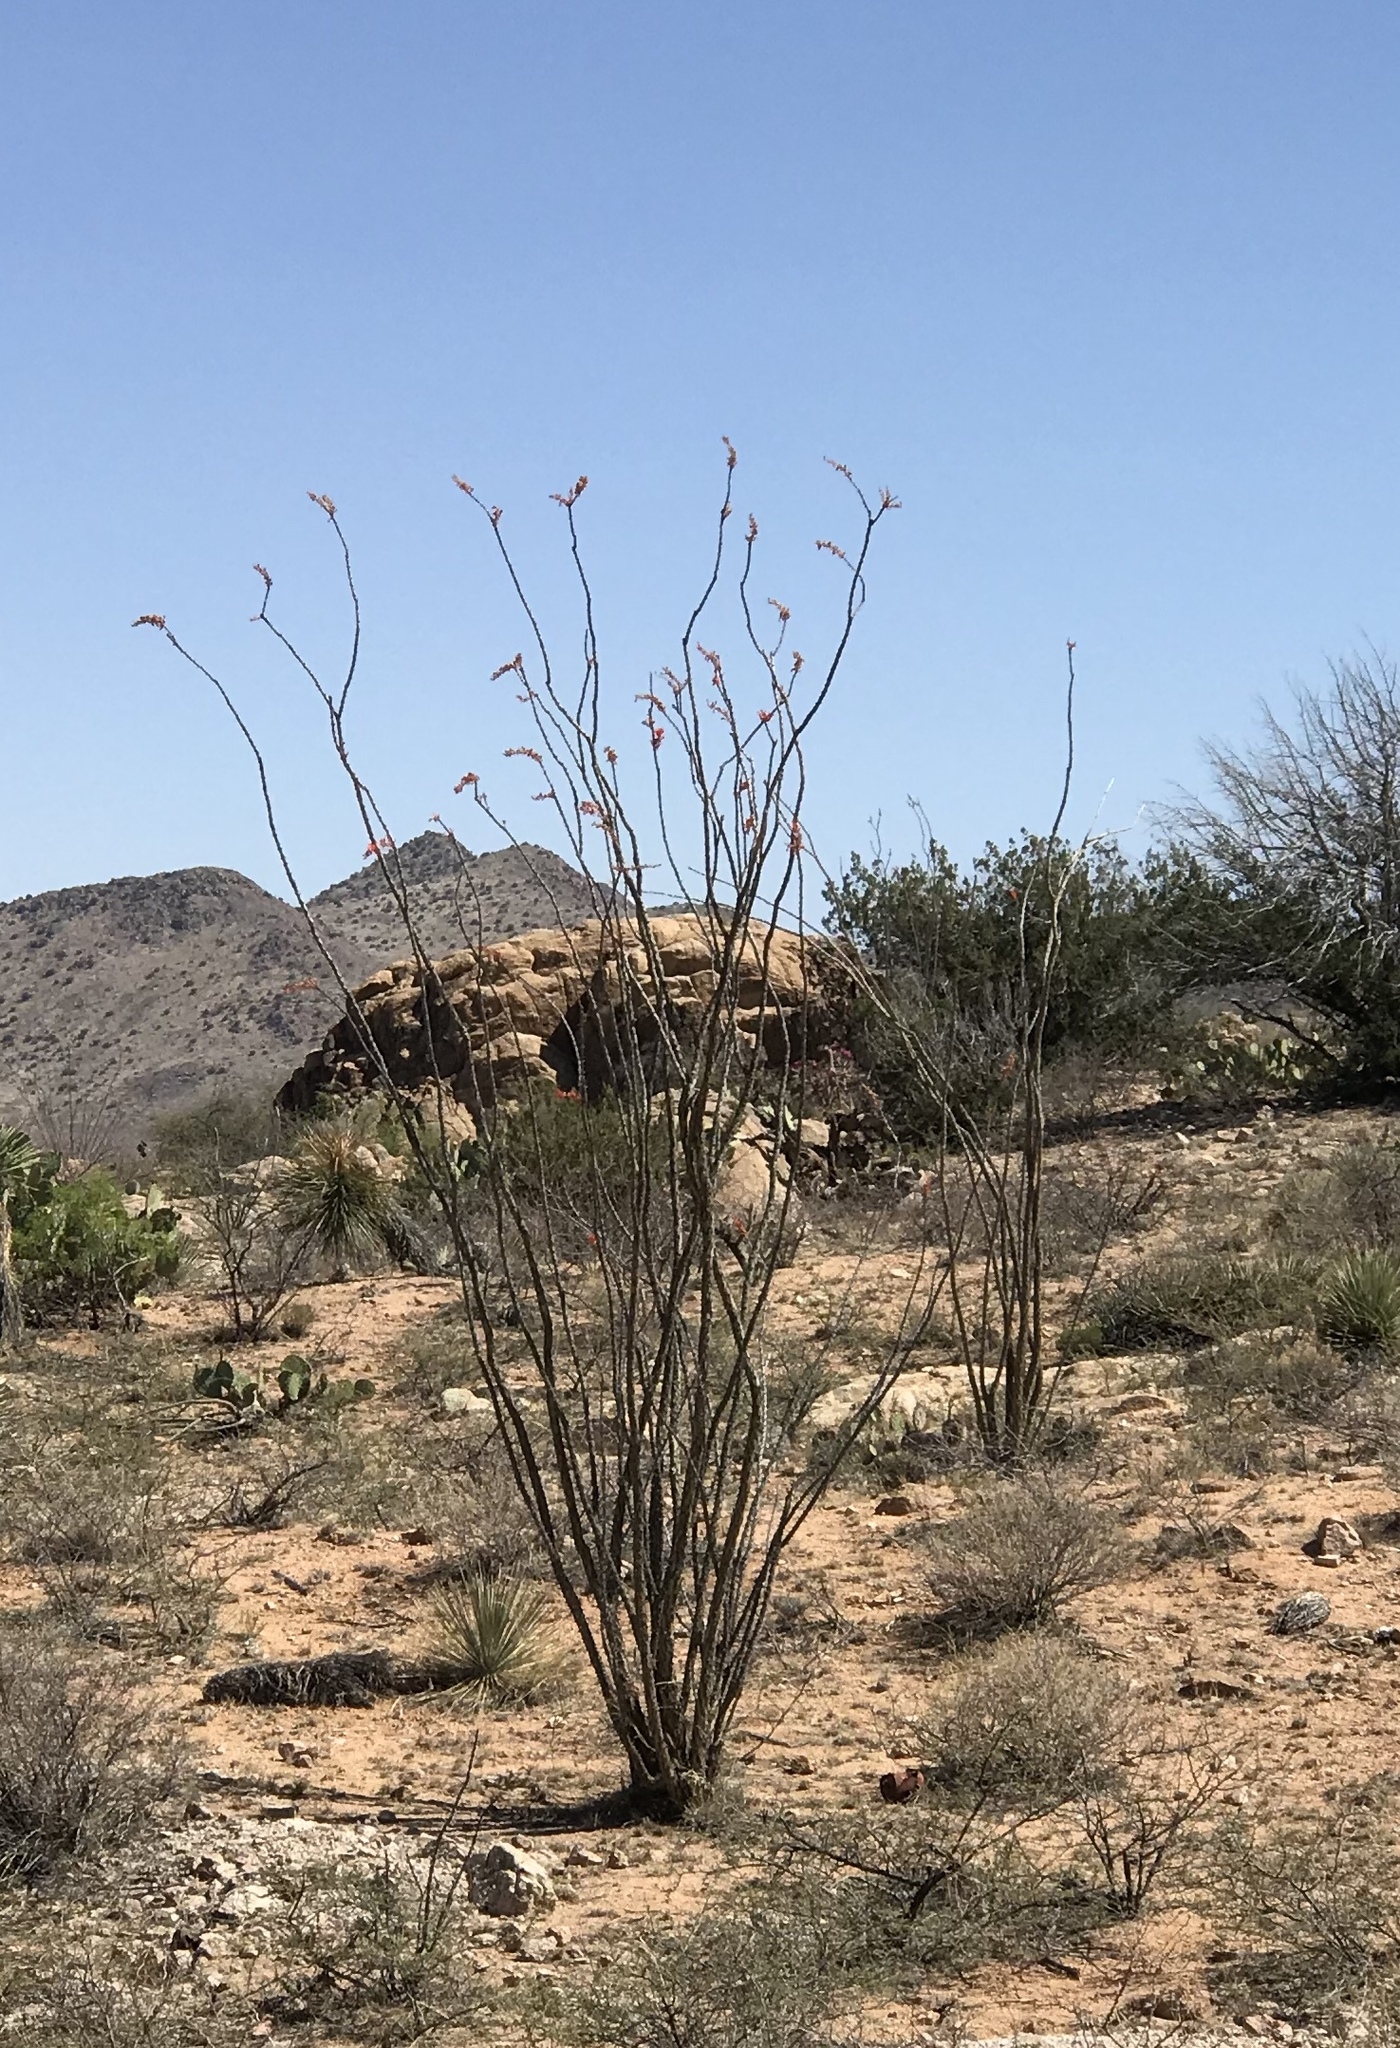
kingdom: Plantae
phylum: Tracheophyta
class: Magnoliopsida
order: Ericales
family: Fouquieriaceae
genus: Fouquieria
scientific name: Fouquieria splendens
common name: Vine-cactus
